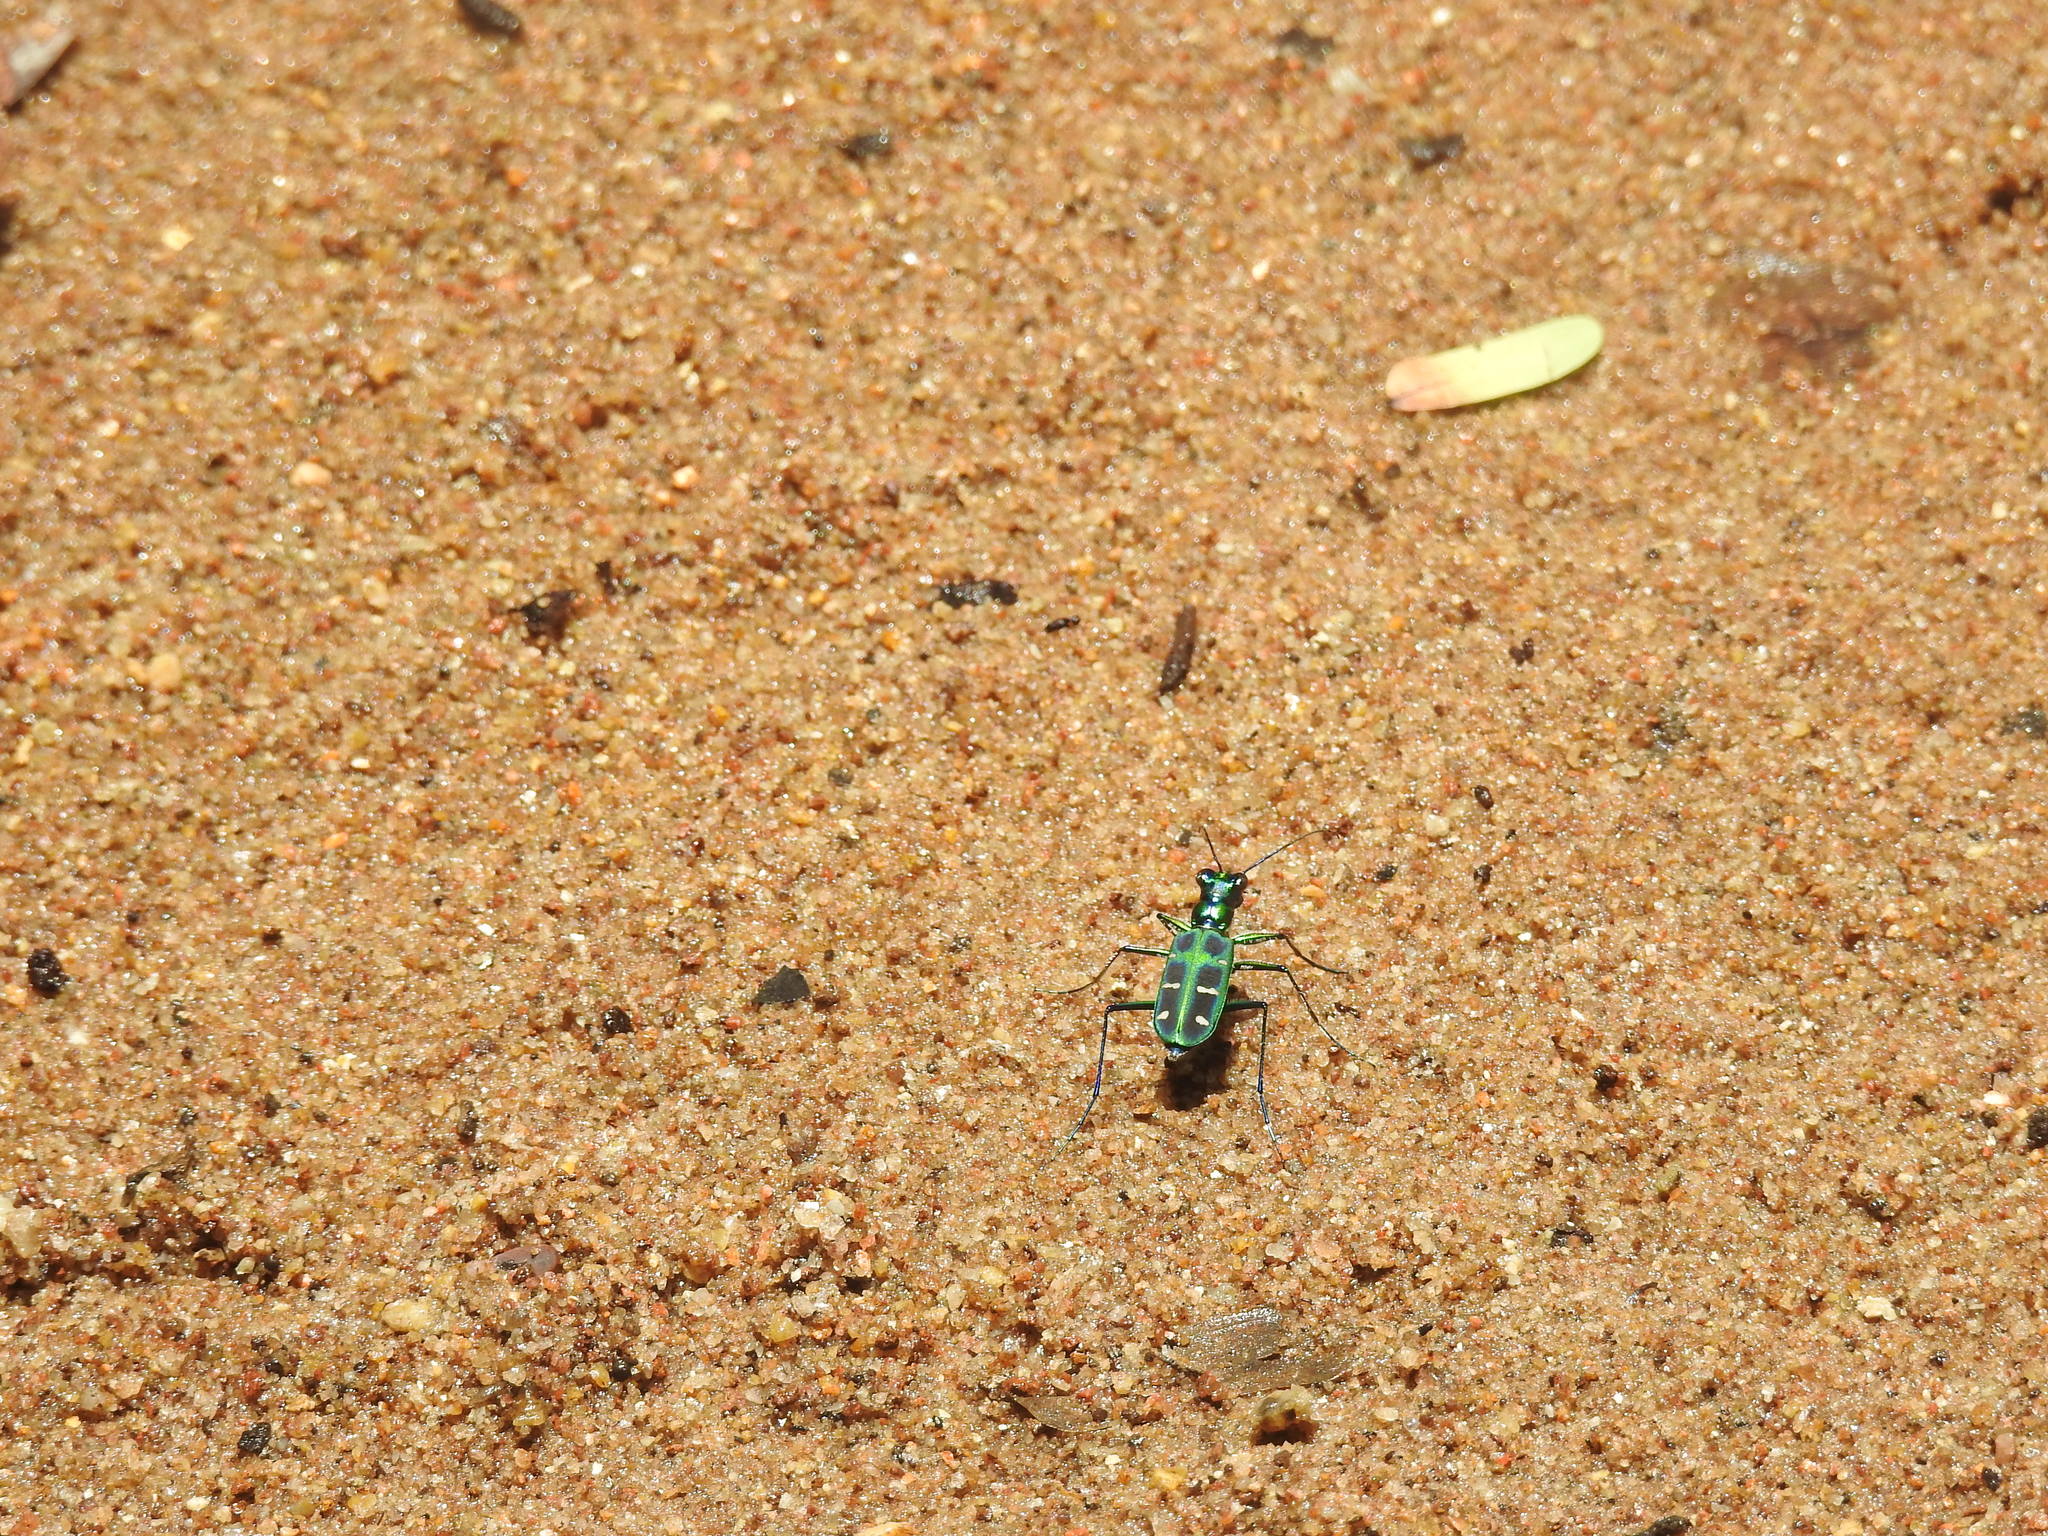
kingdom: Animalia
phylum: Arthropoda
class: Insecta
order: Coleoptera
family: Carabidae
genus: Cicindela
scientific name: Cicindela barmanica
